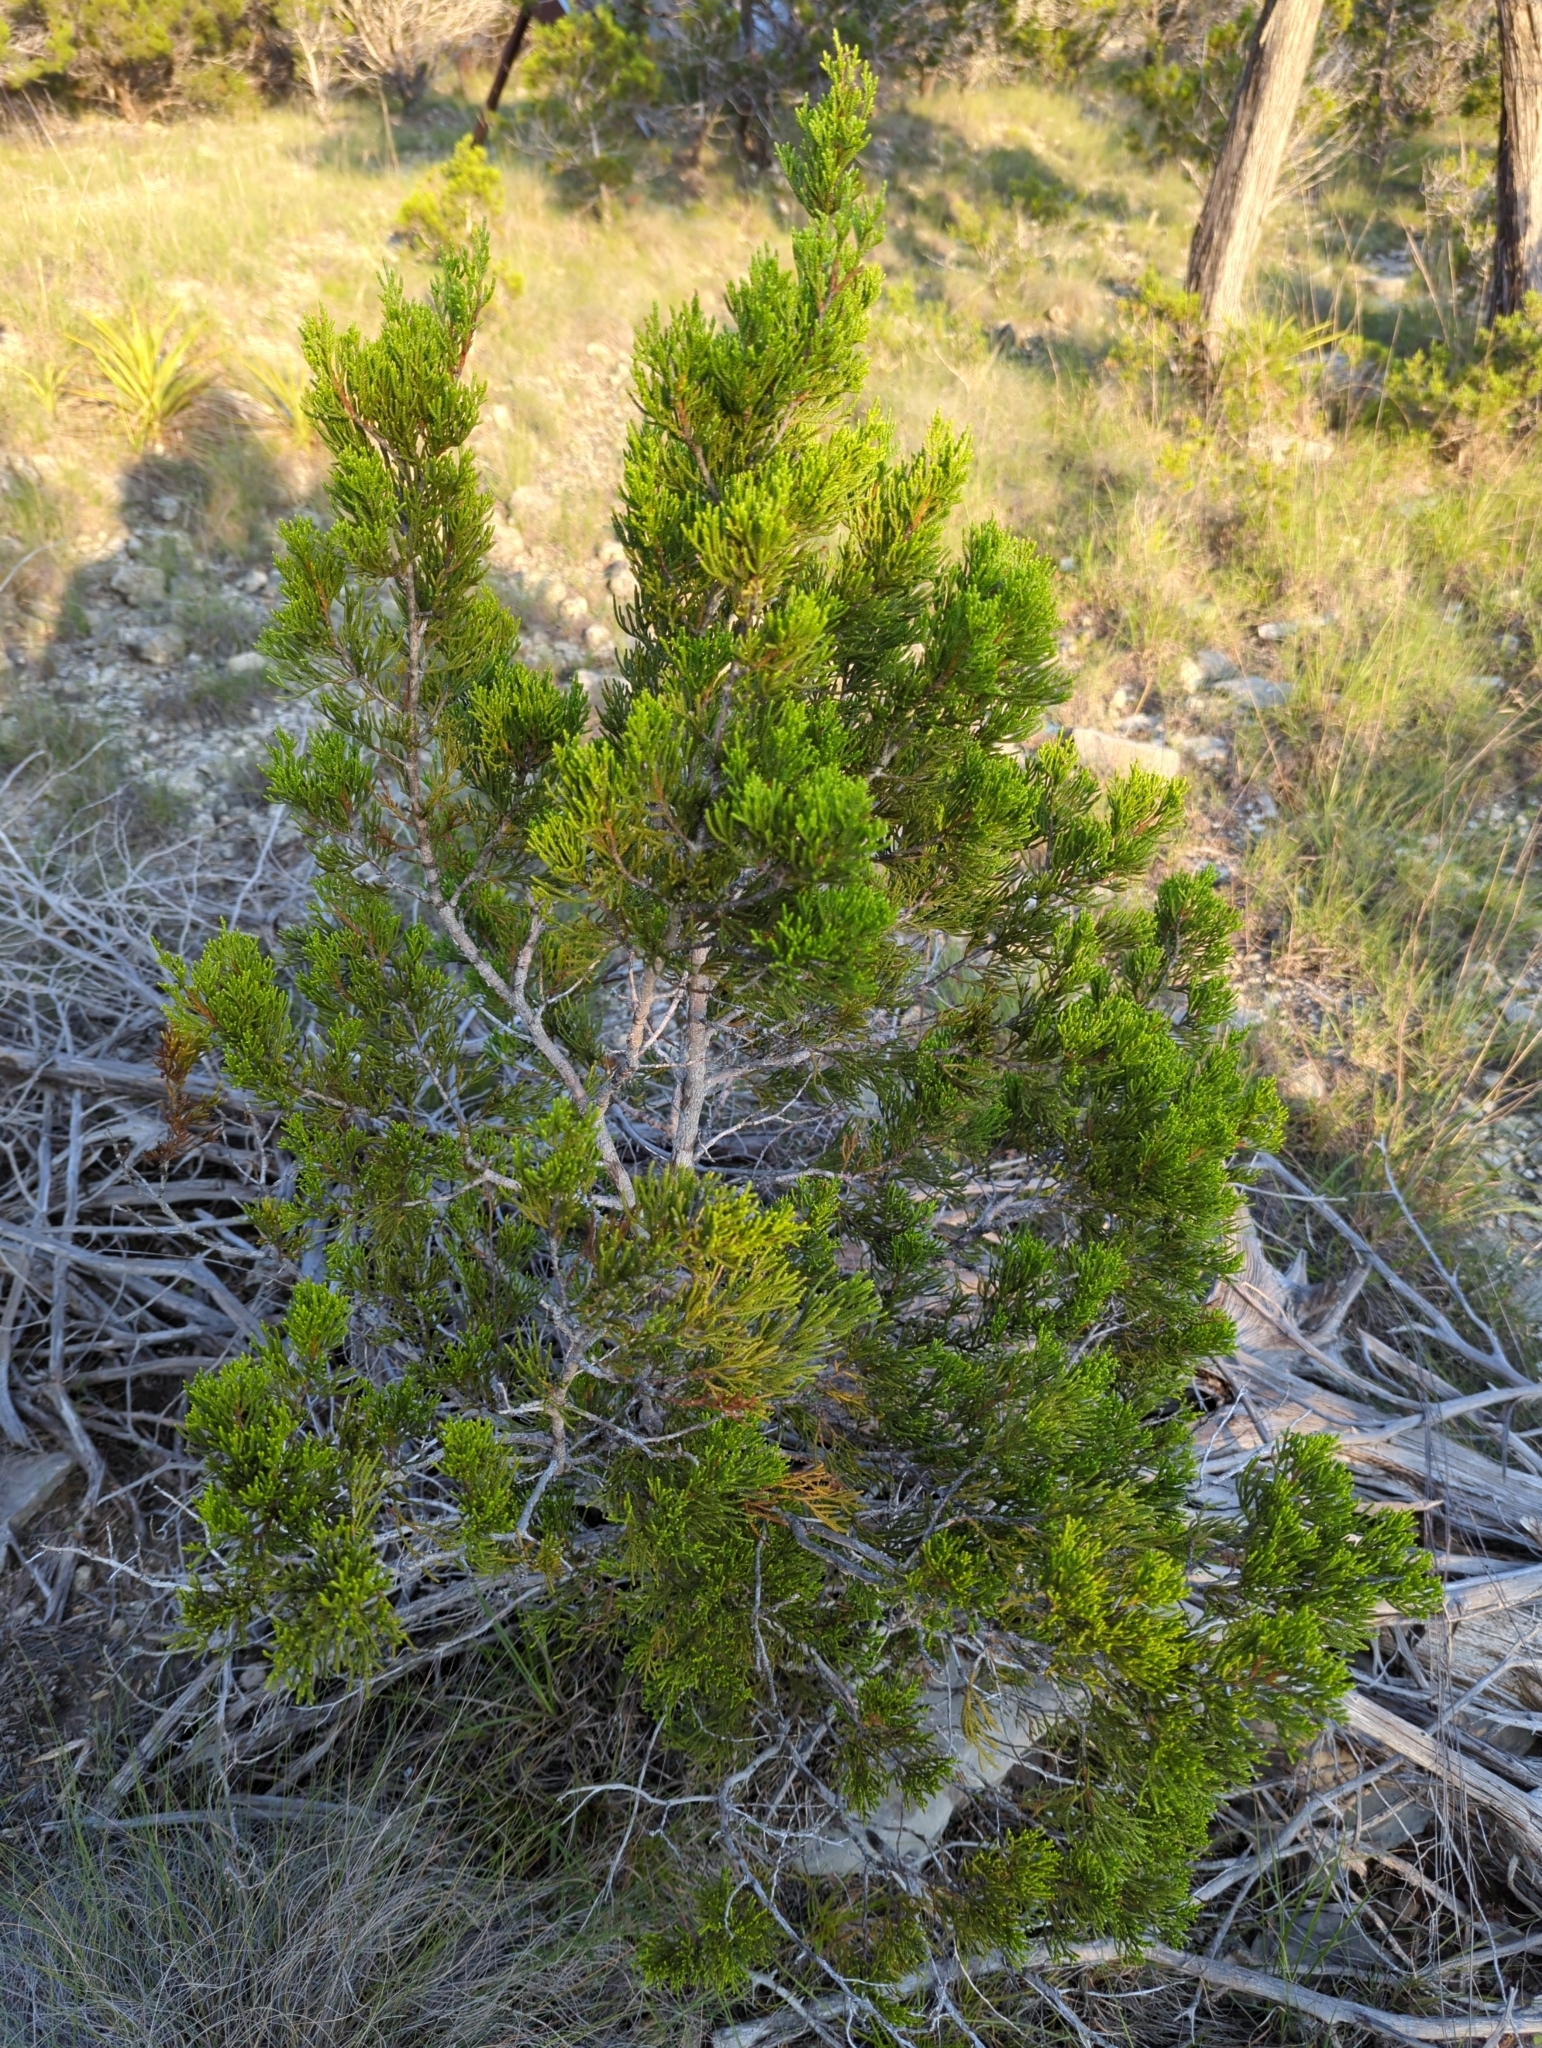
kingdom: Plantae
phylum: Tracheophyta
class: Pinopsida
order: Pinales
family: Cupressaceae
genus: Juniperus
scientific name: Juniperus ashei
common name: Mexican juniper
